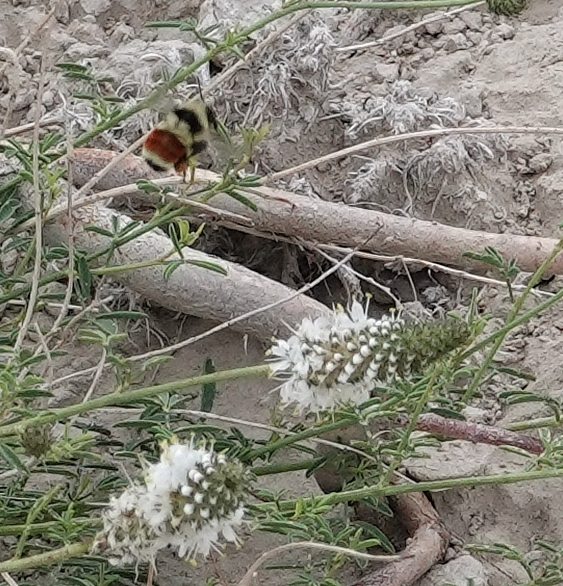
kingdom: Animalia
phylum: Arthropoda
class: Insecta
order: Hymenoptera
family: Apidae
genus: Bombus
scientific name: Bombus huntii
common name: Hunt bumble bee
